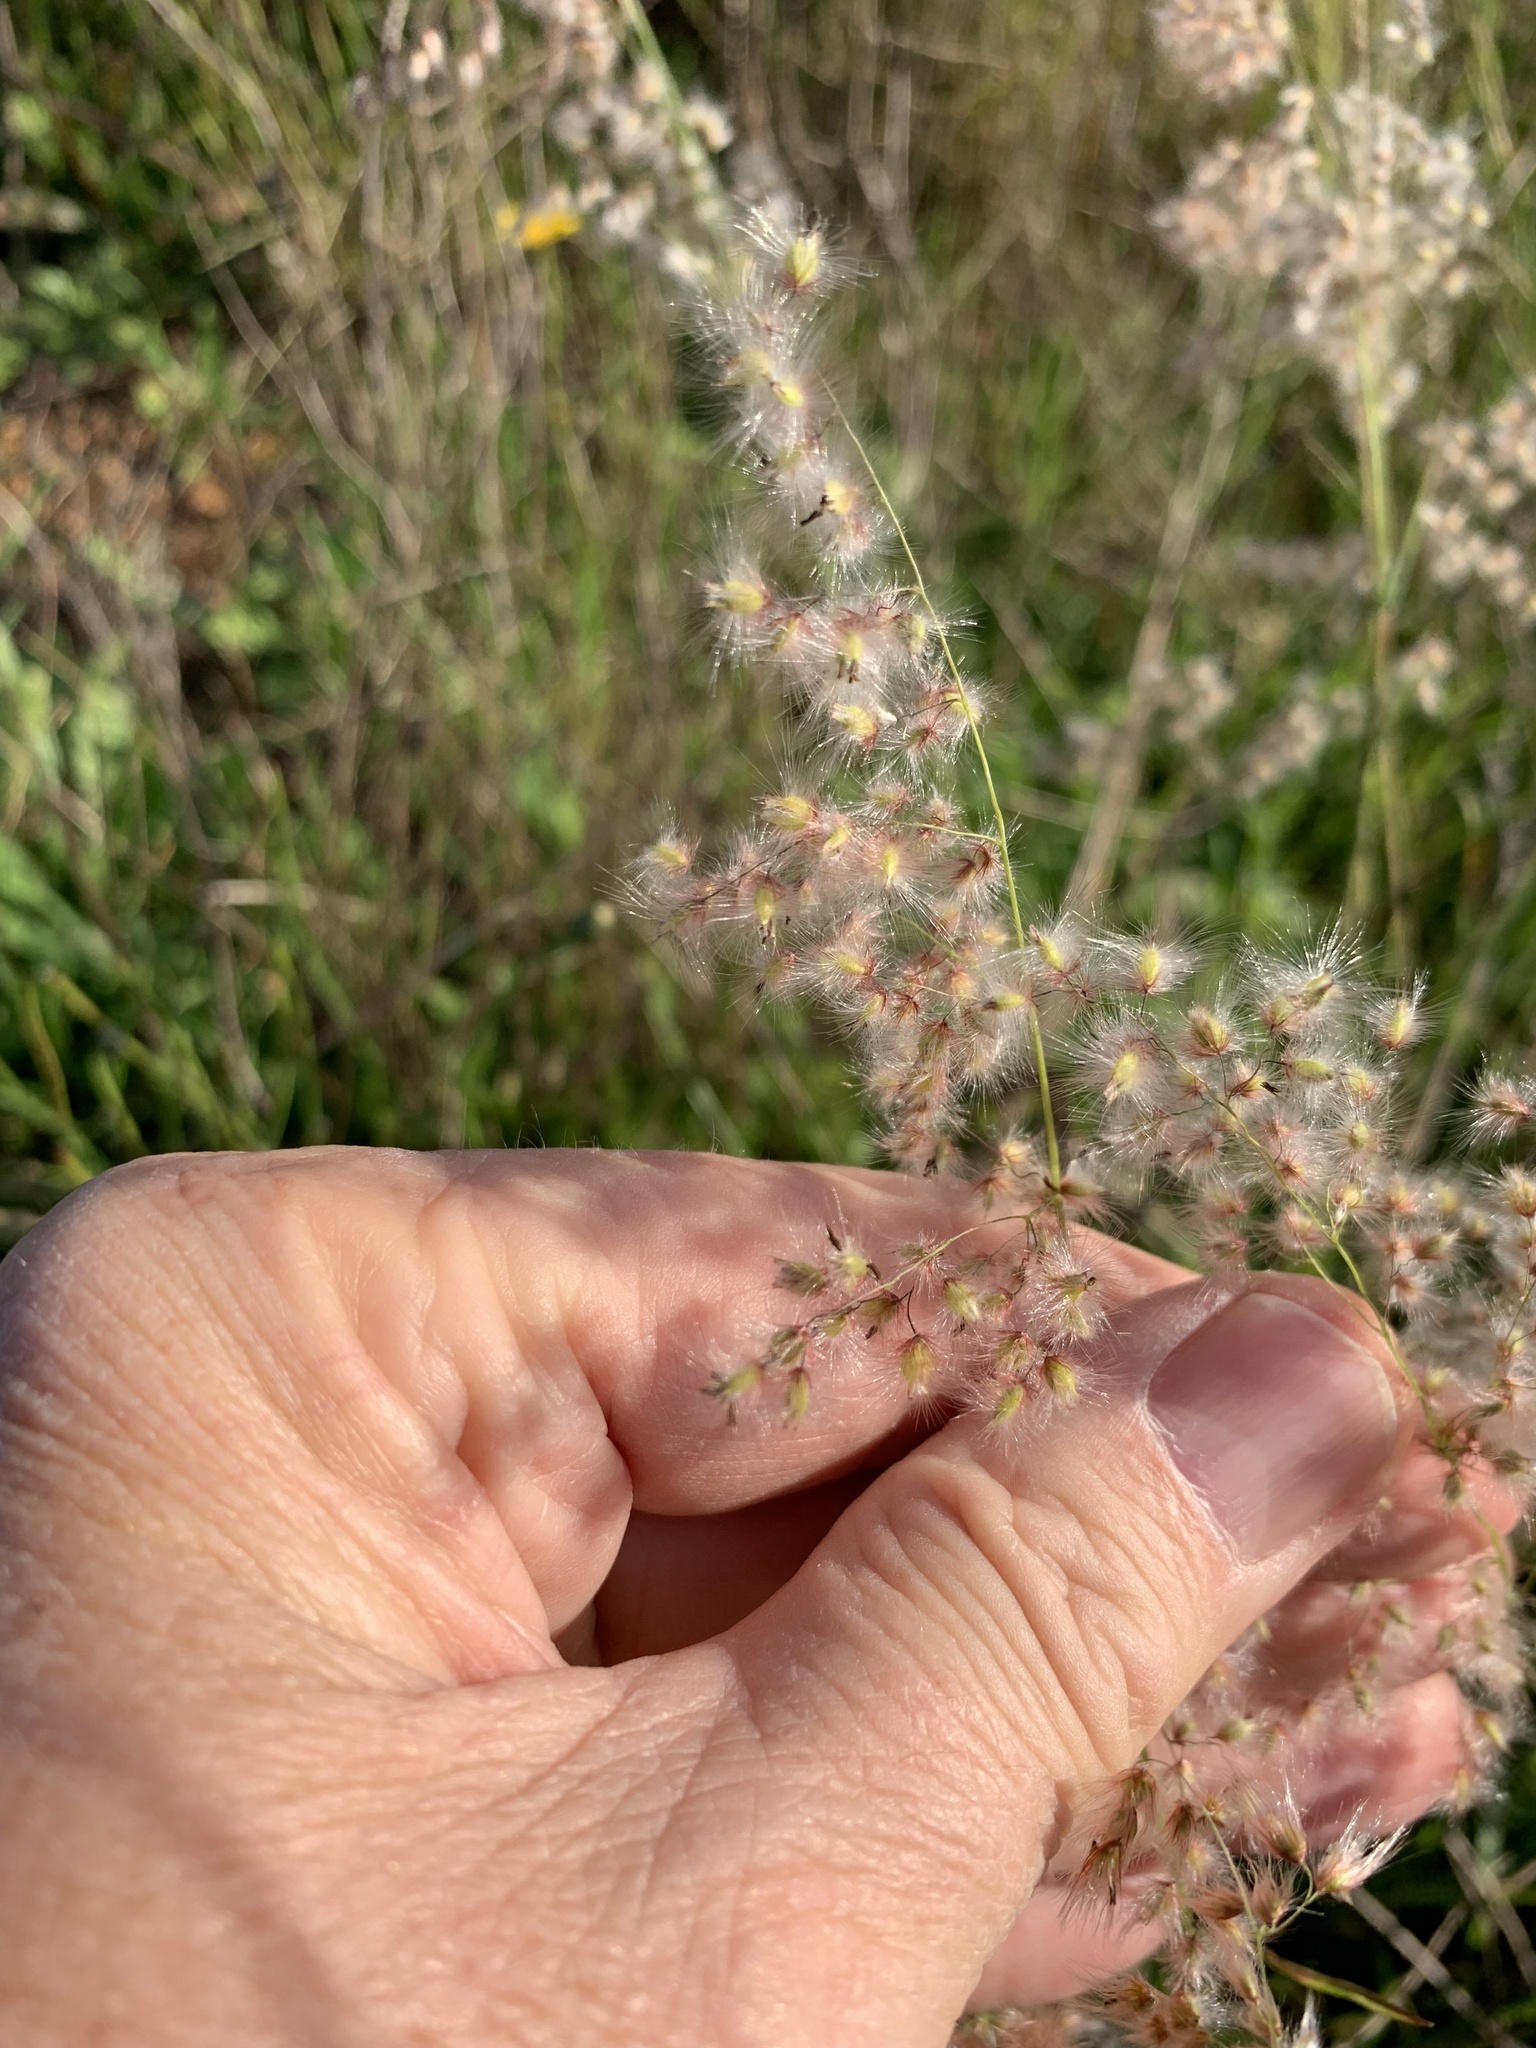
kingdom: Plantae
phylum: Tracheophyta
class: Liliopsida
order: Poales
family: Poaceae
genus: Melinis
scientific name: Melinis repens
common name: Rose natal grass
